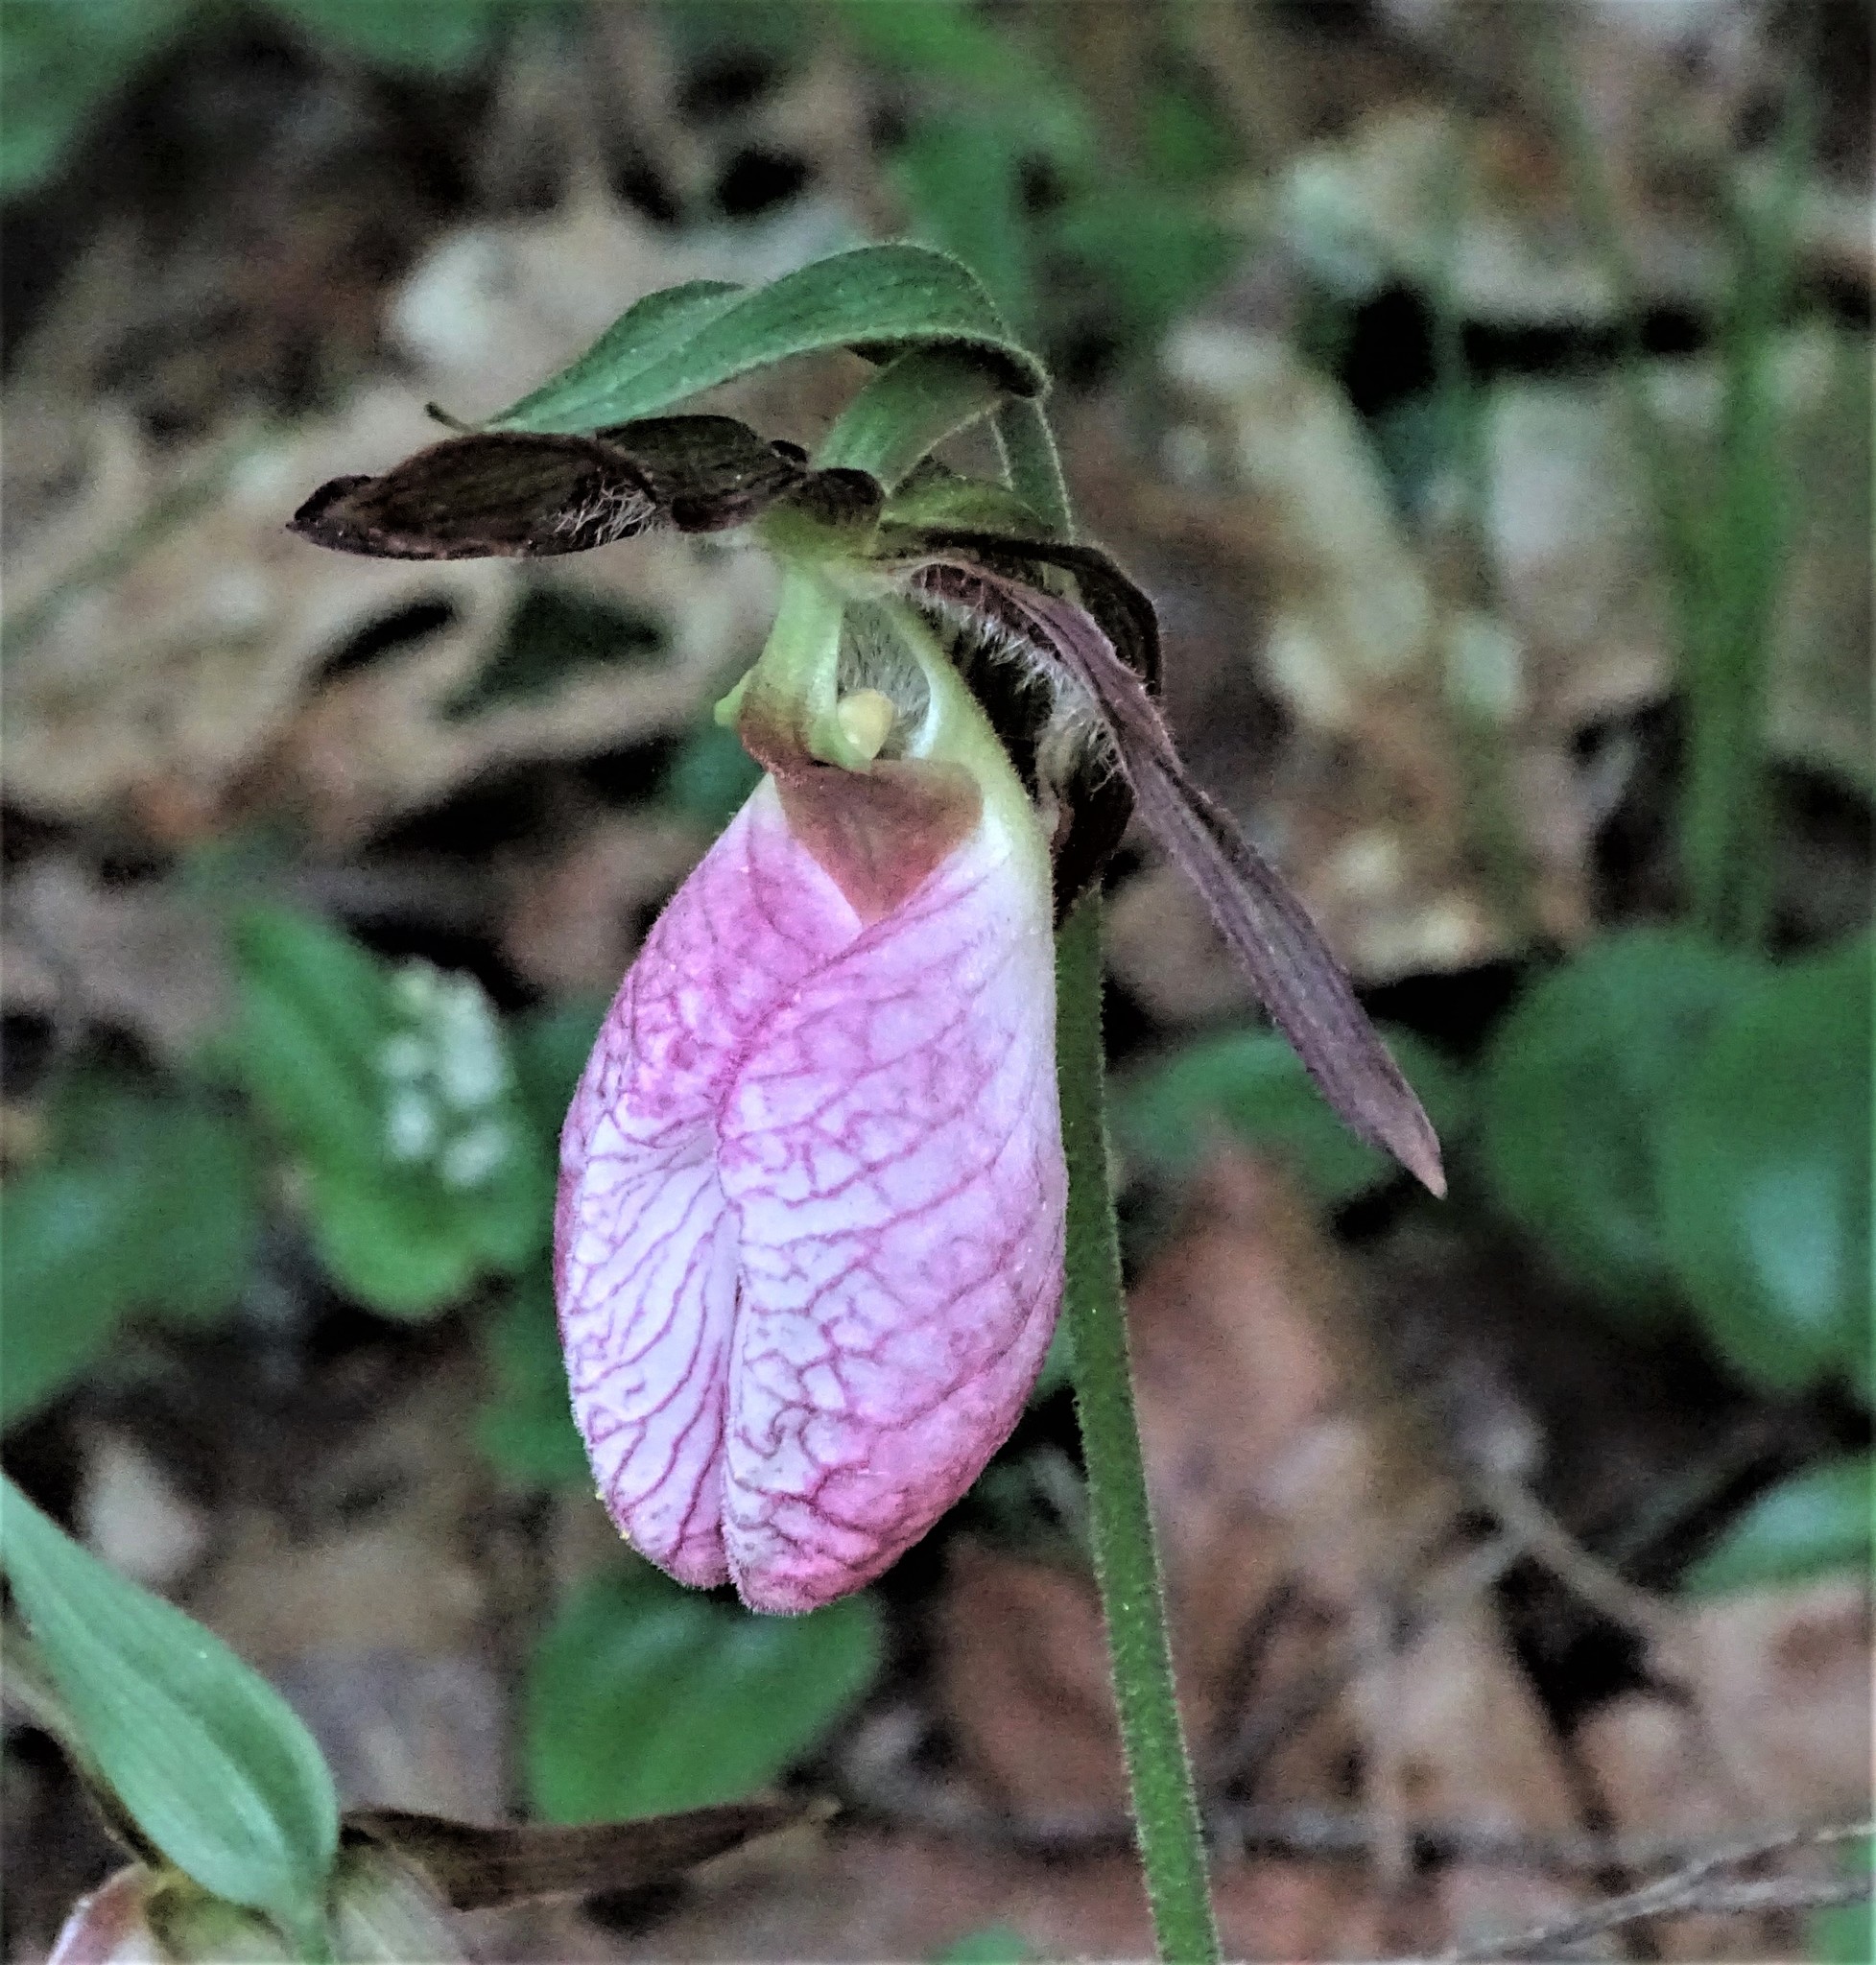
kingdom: Plantae
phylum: Tracheophyta
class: Liliopsida
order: Asparagales
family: Orchidaceae
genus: Cypripedium
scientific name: Cypripedium acaule
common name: Pink lady's-slipper
